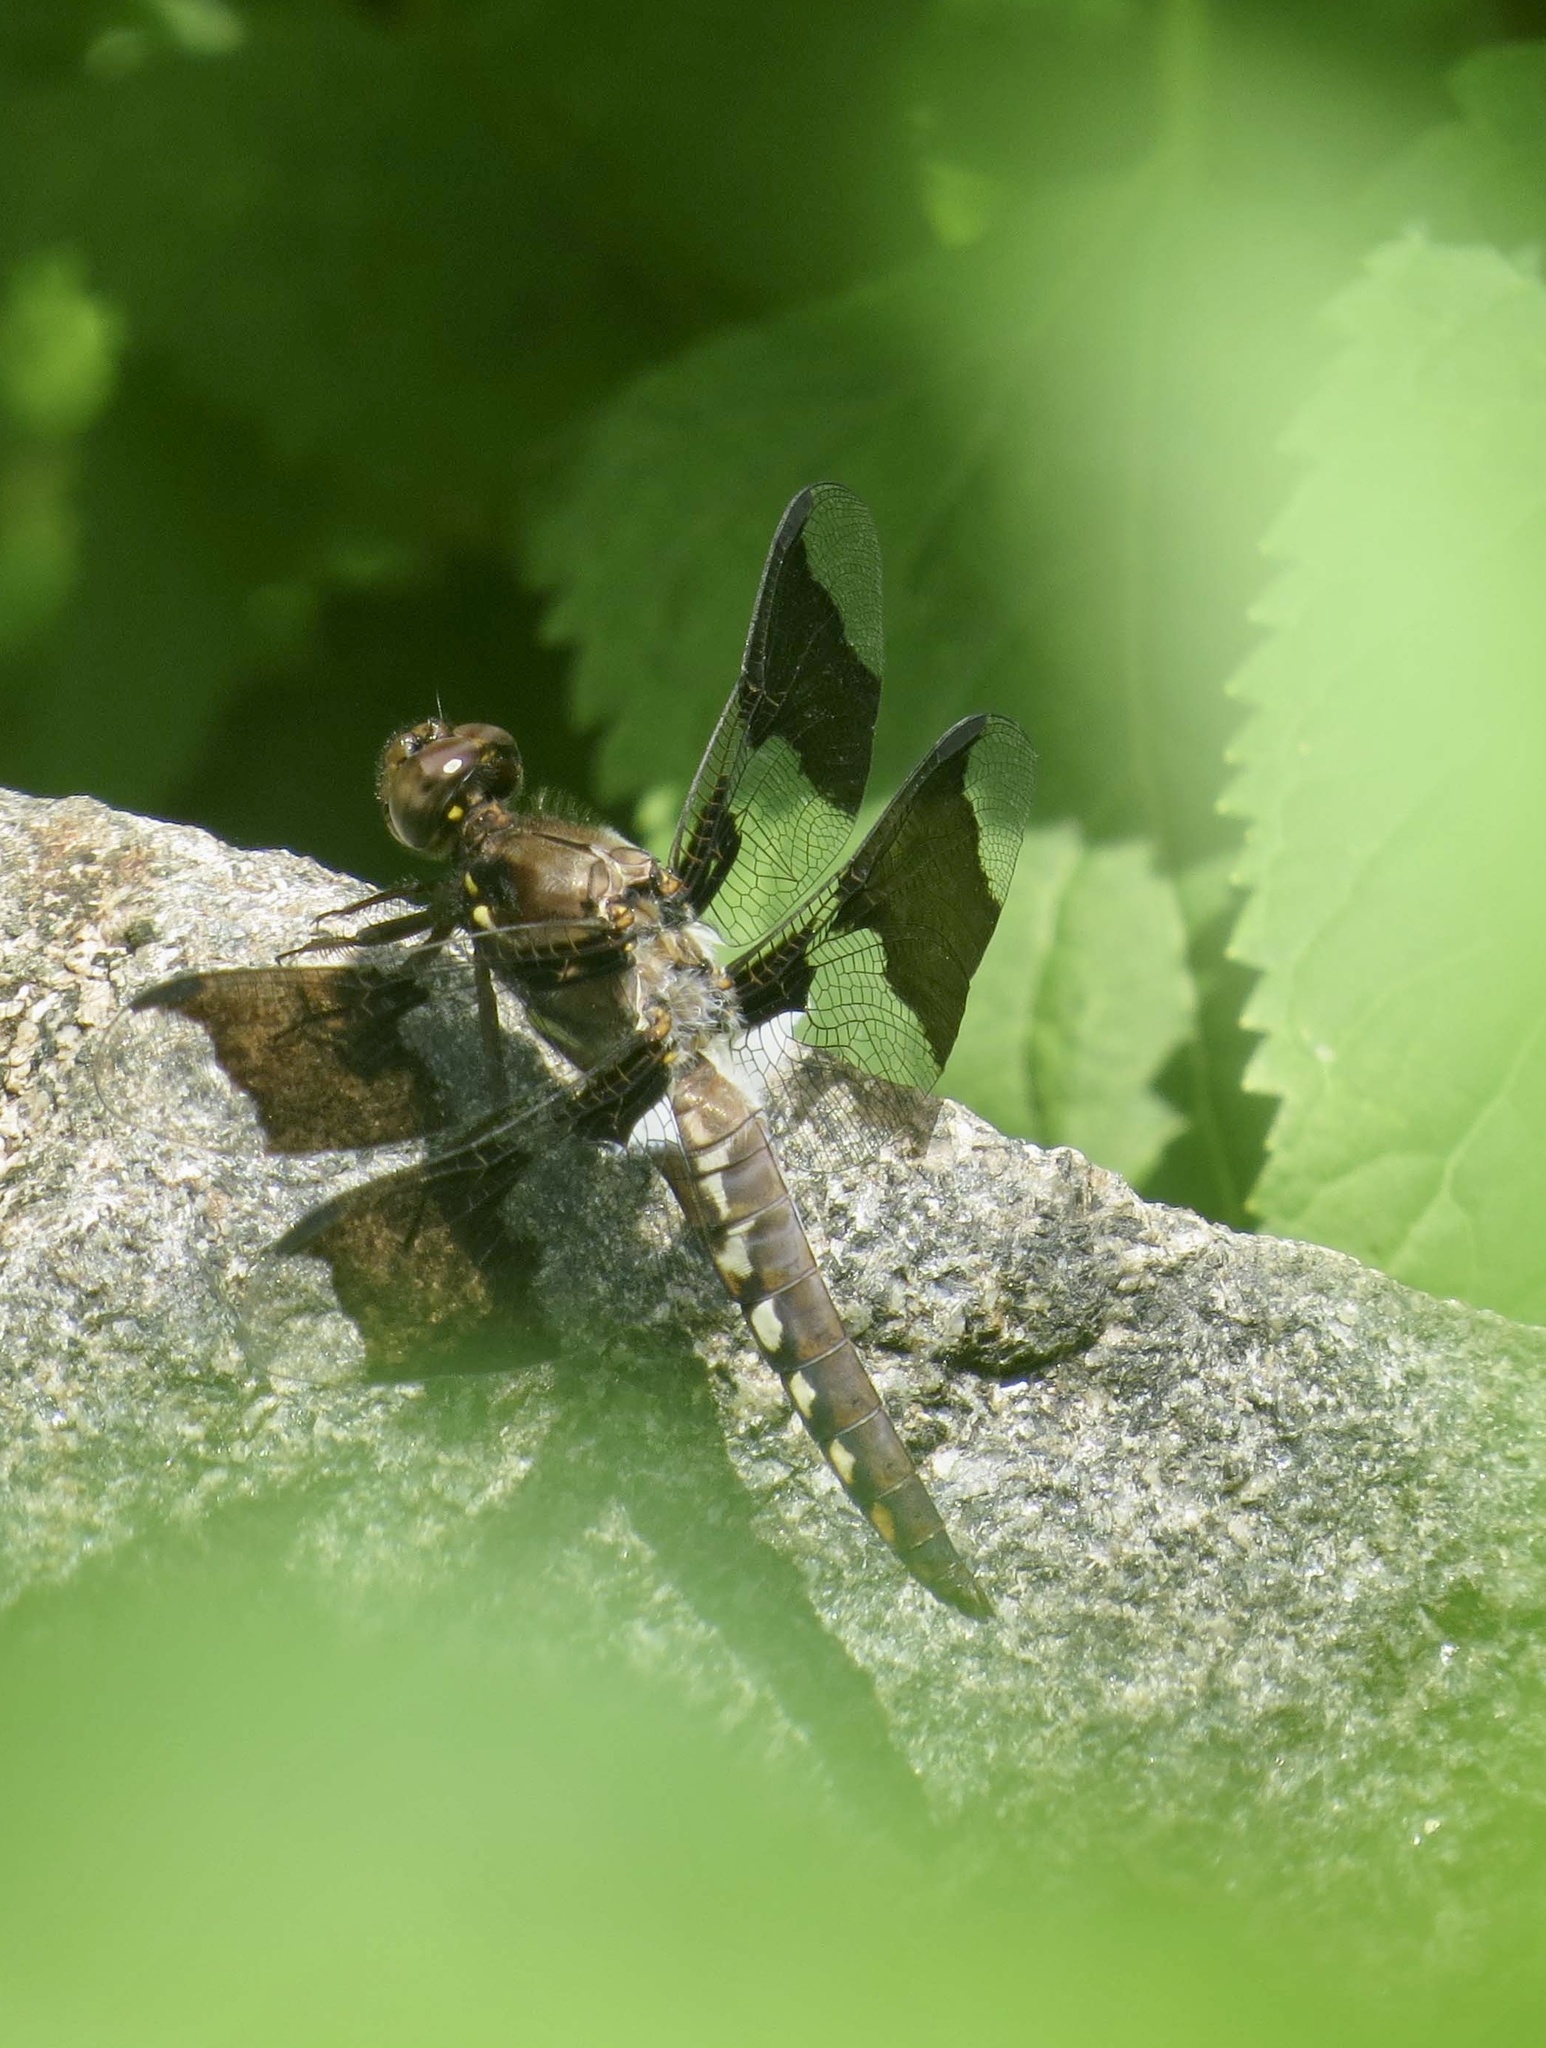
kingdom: Animalia
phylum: Arthropoda
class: Insecta
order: Odonata
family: Libellulidae
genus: Plathemis
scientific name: Plathemis lydia
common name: Common whitetail
